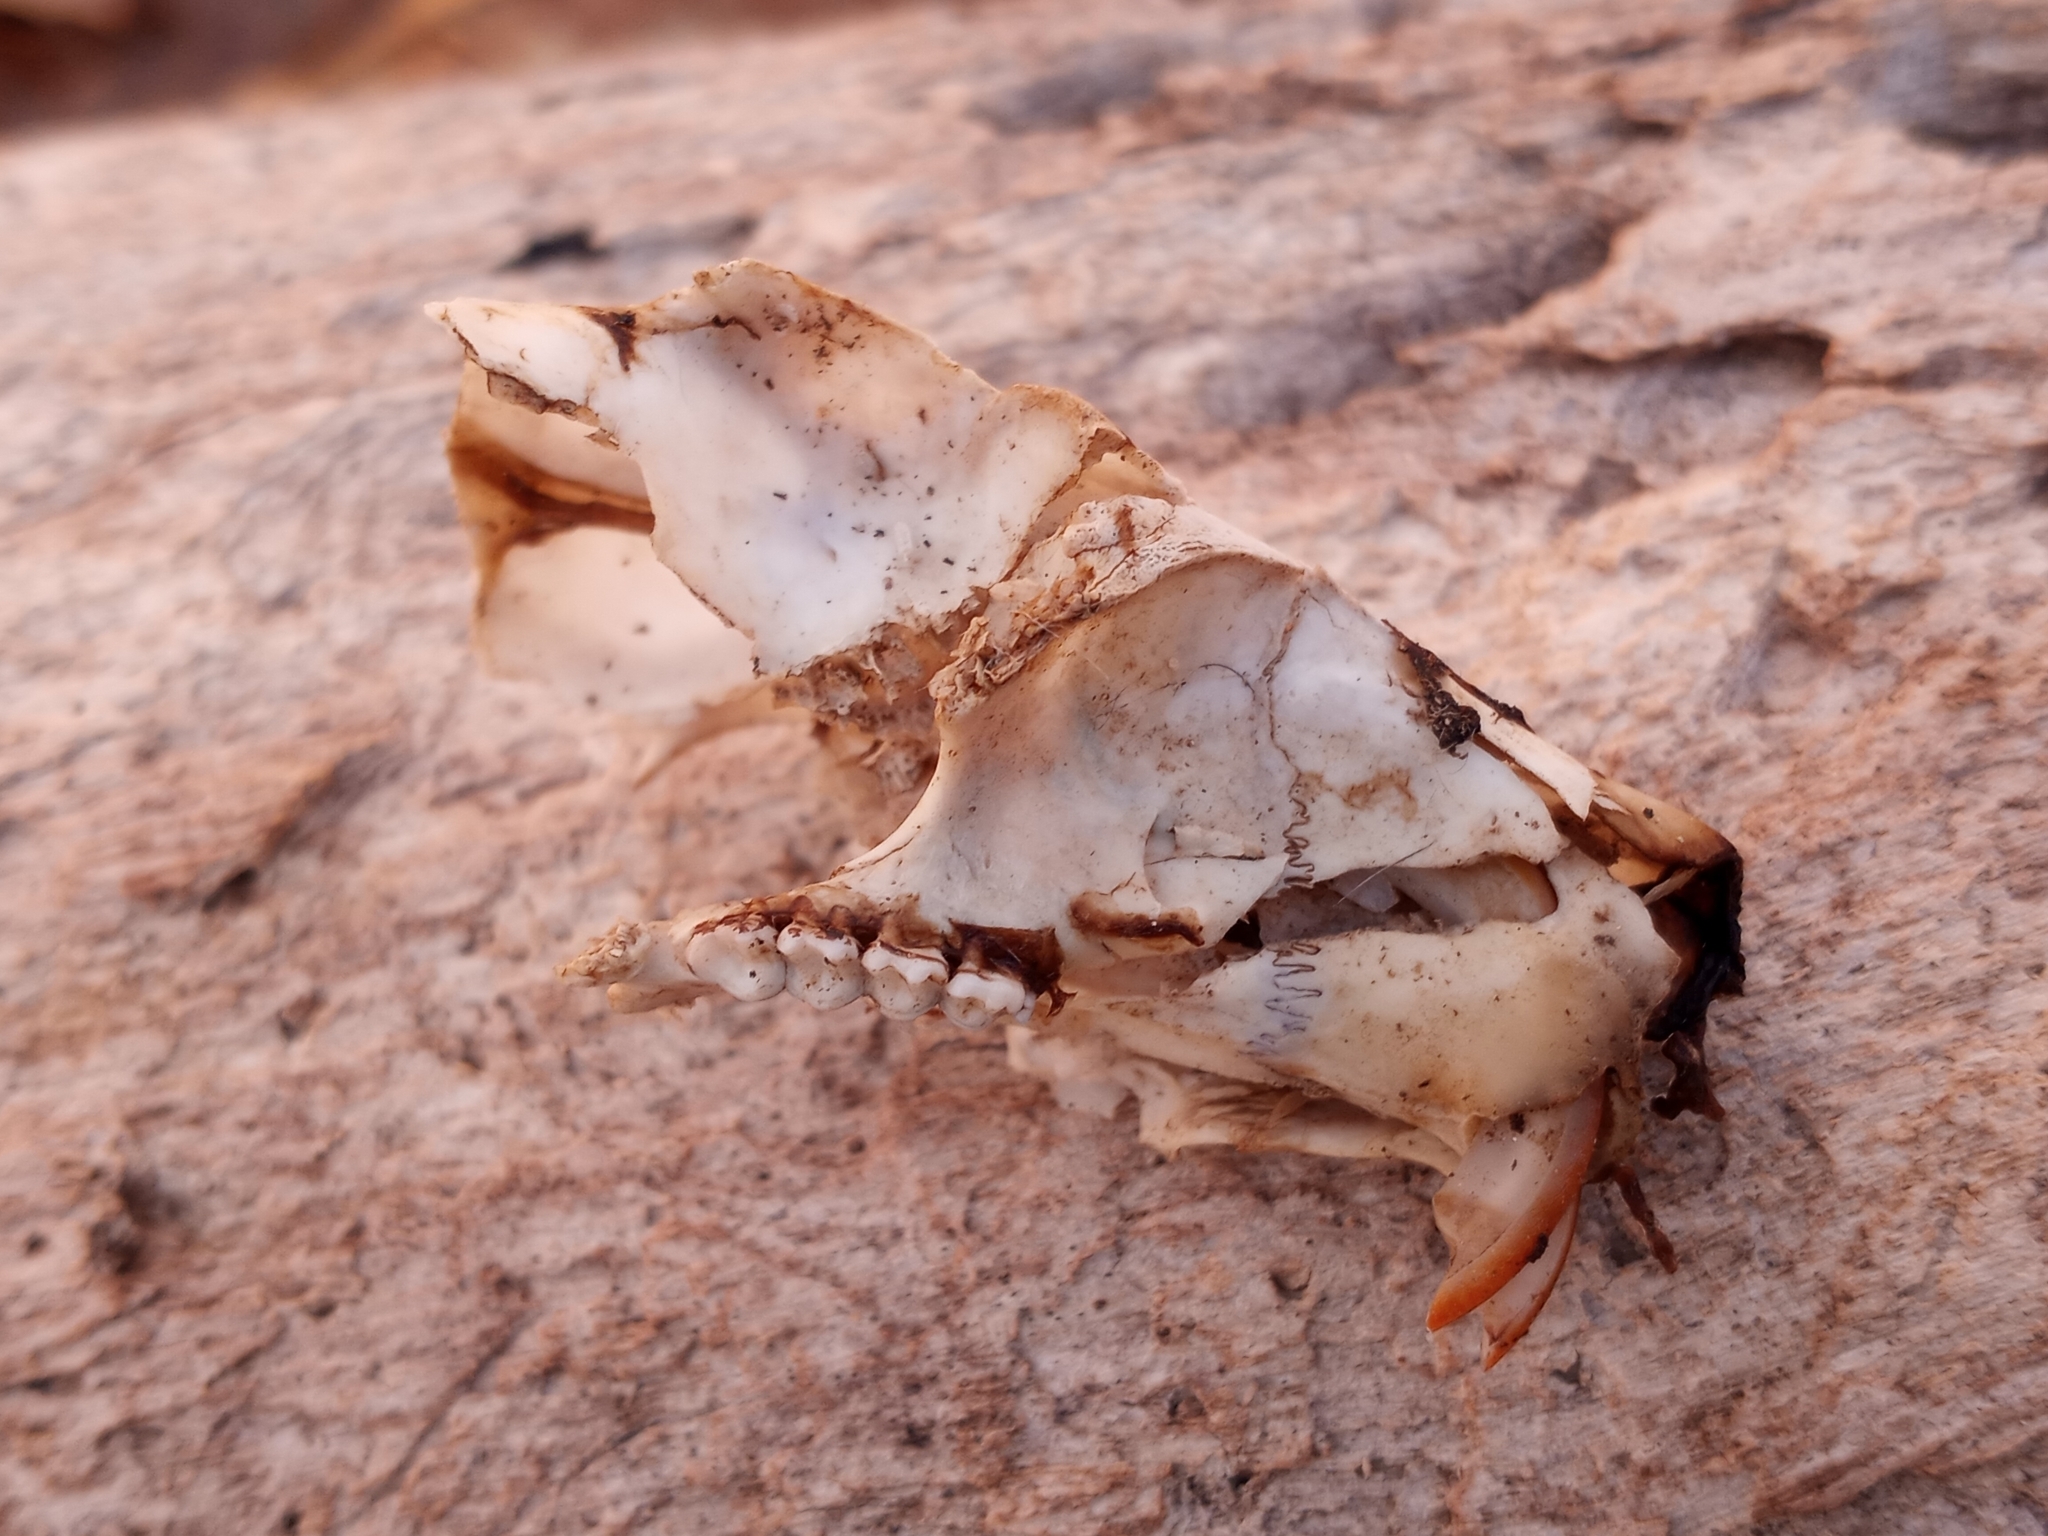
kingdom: Animalia
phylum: Chordata
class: Mammalia
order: Rodentia
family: Sciuridae
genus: Sciurus
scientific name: Sciurus carolinensis
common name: Eastern gray squirrel
